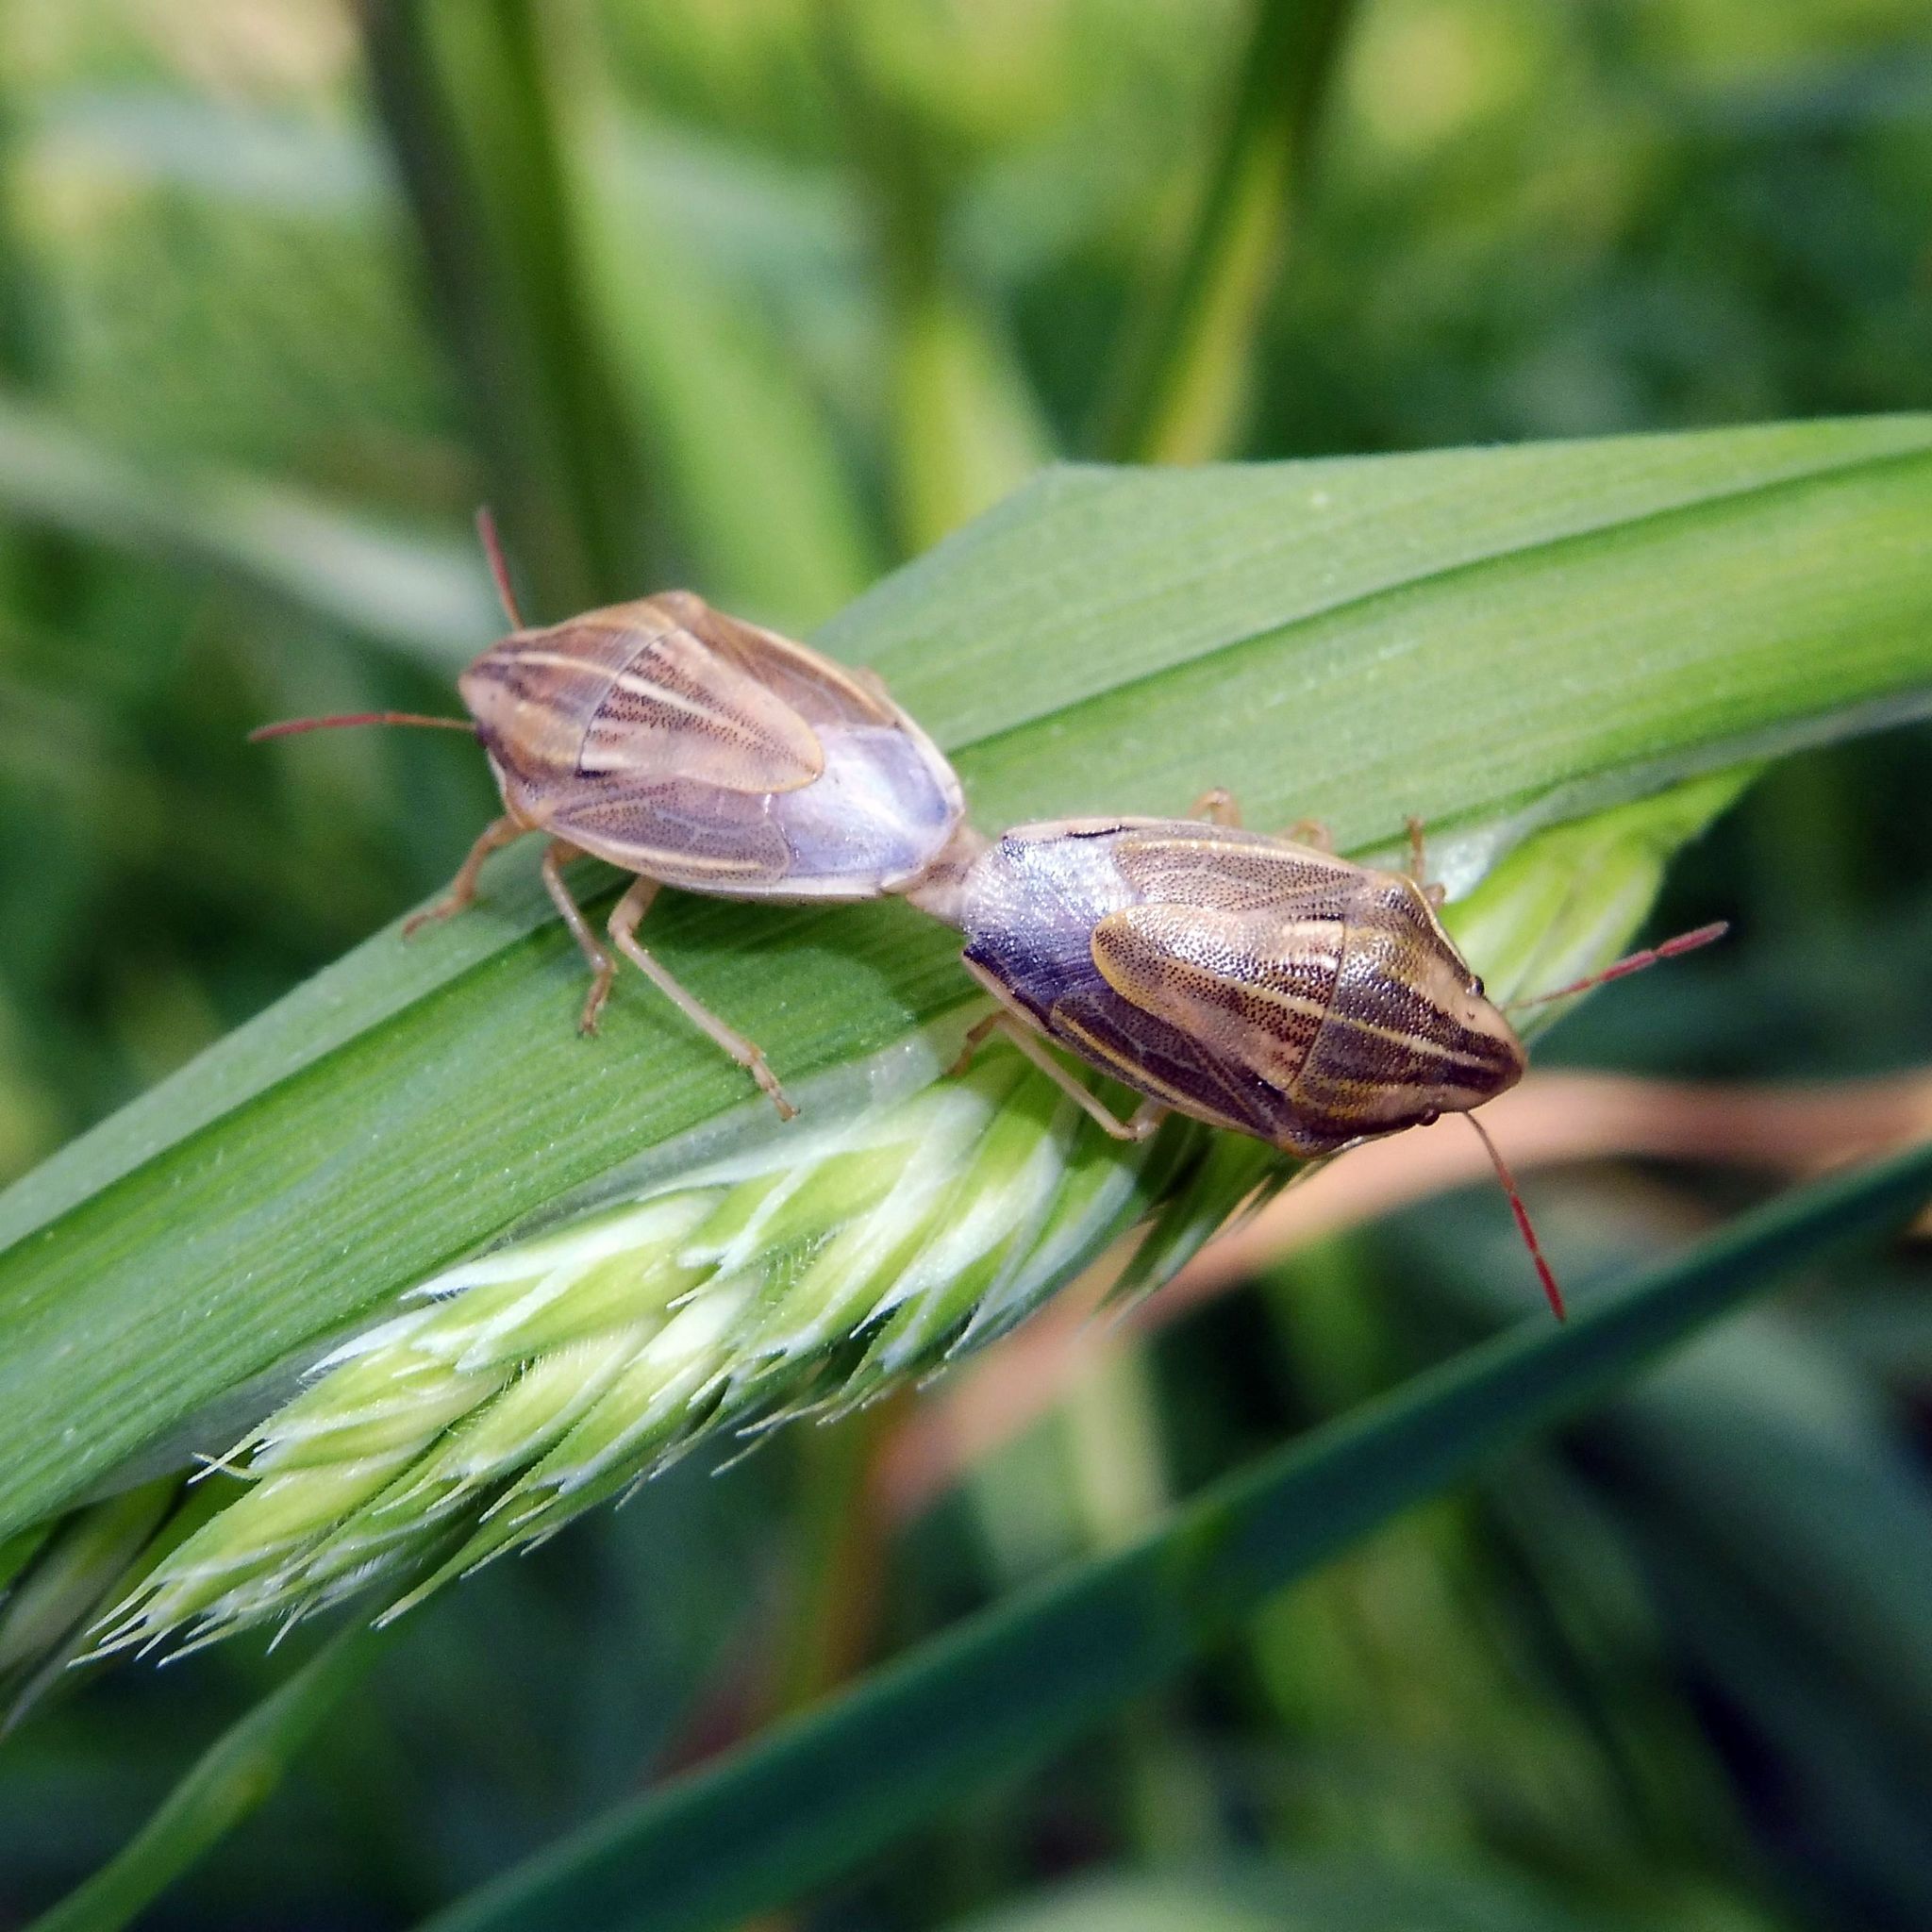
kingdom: Animalia
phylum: Arthropoda
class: Insecta
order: Hemiptera
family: Pentatomidae
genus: Aelia
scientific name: Aelia acuminata
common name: Bishop's mitre
